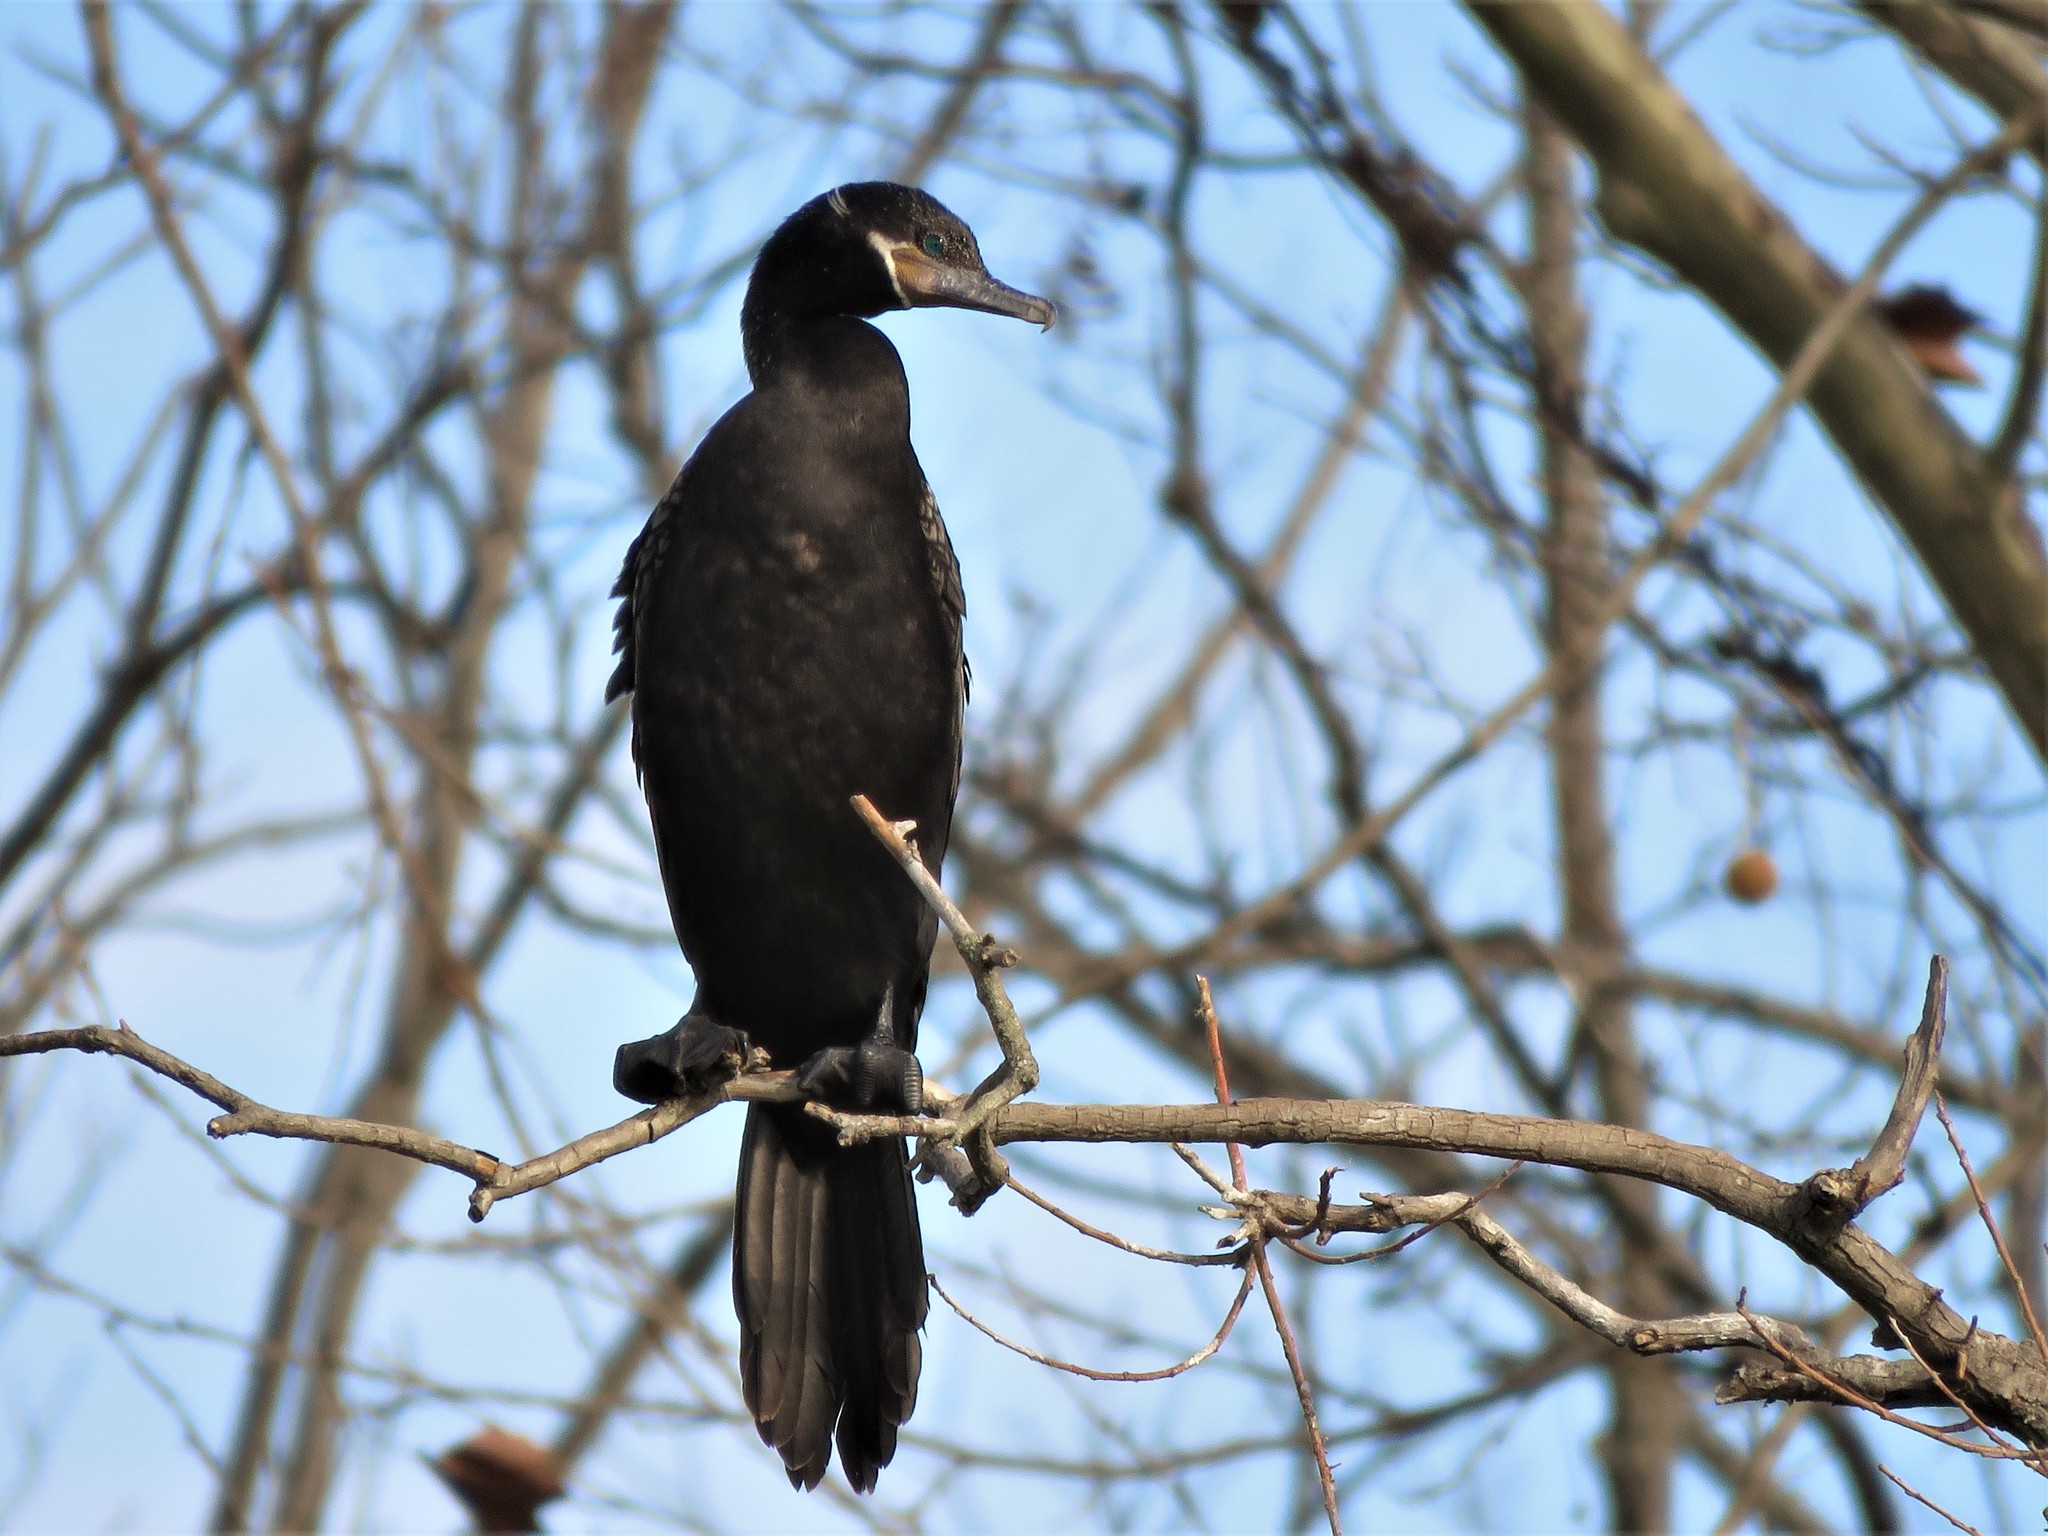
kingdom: Animalia
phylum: Chordata
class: Aves
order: Suliformes
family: Phalacrocoracidae
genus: Phalacrocorax
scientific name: Phalacrocorax brasilianus
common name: Neotropic cormorant
